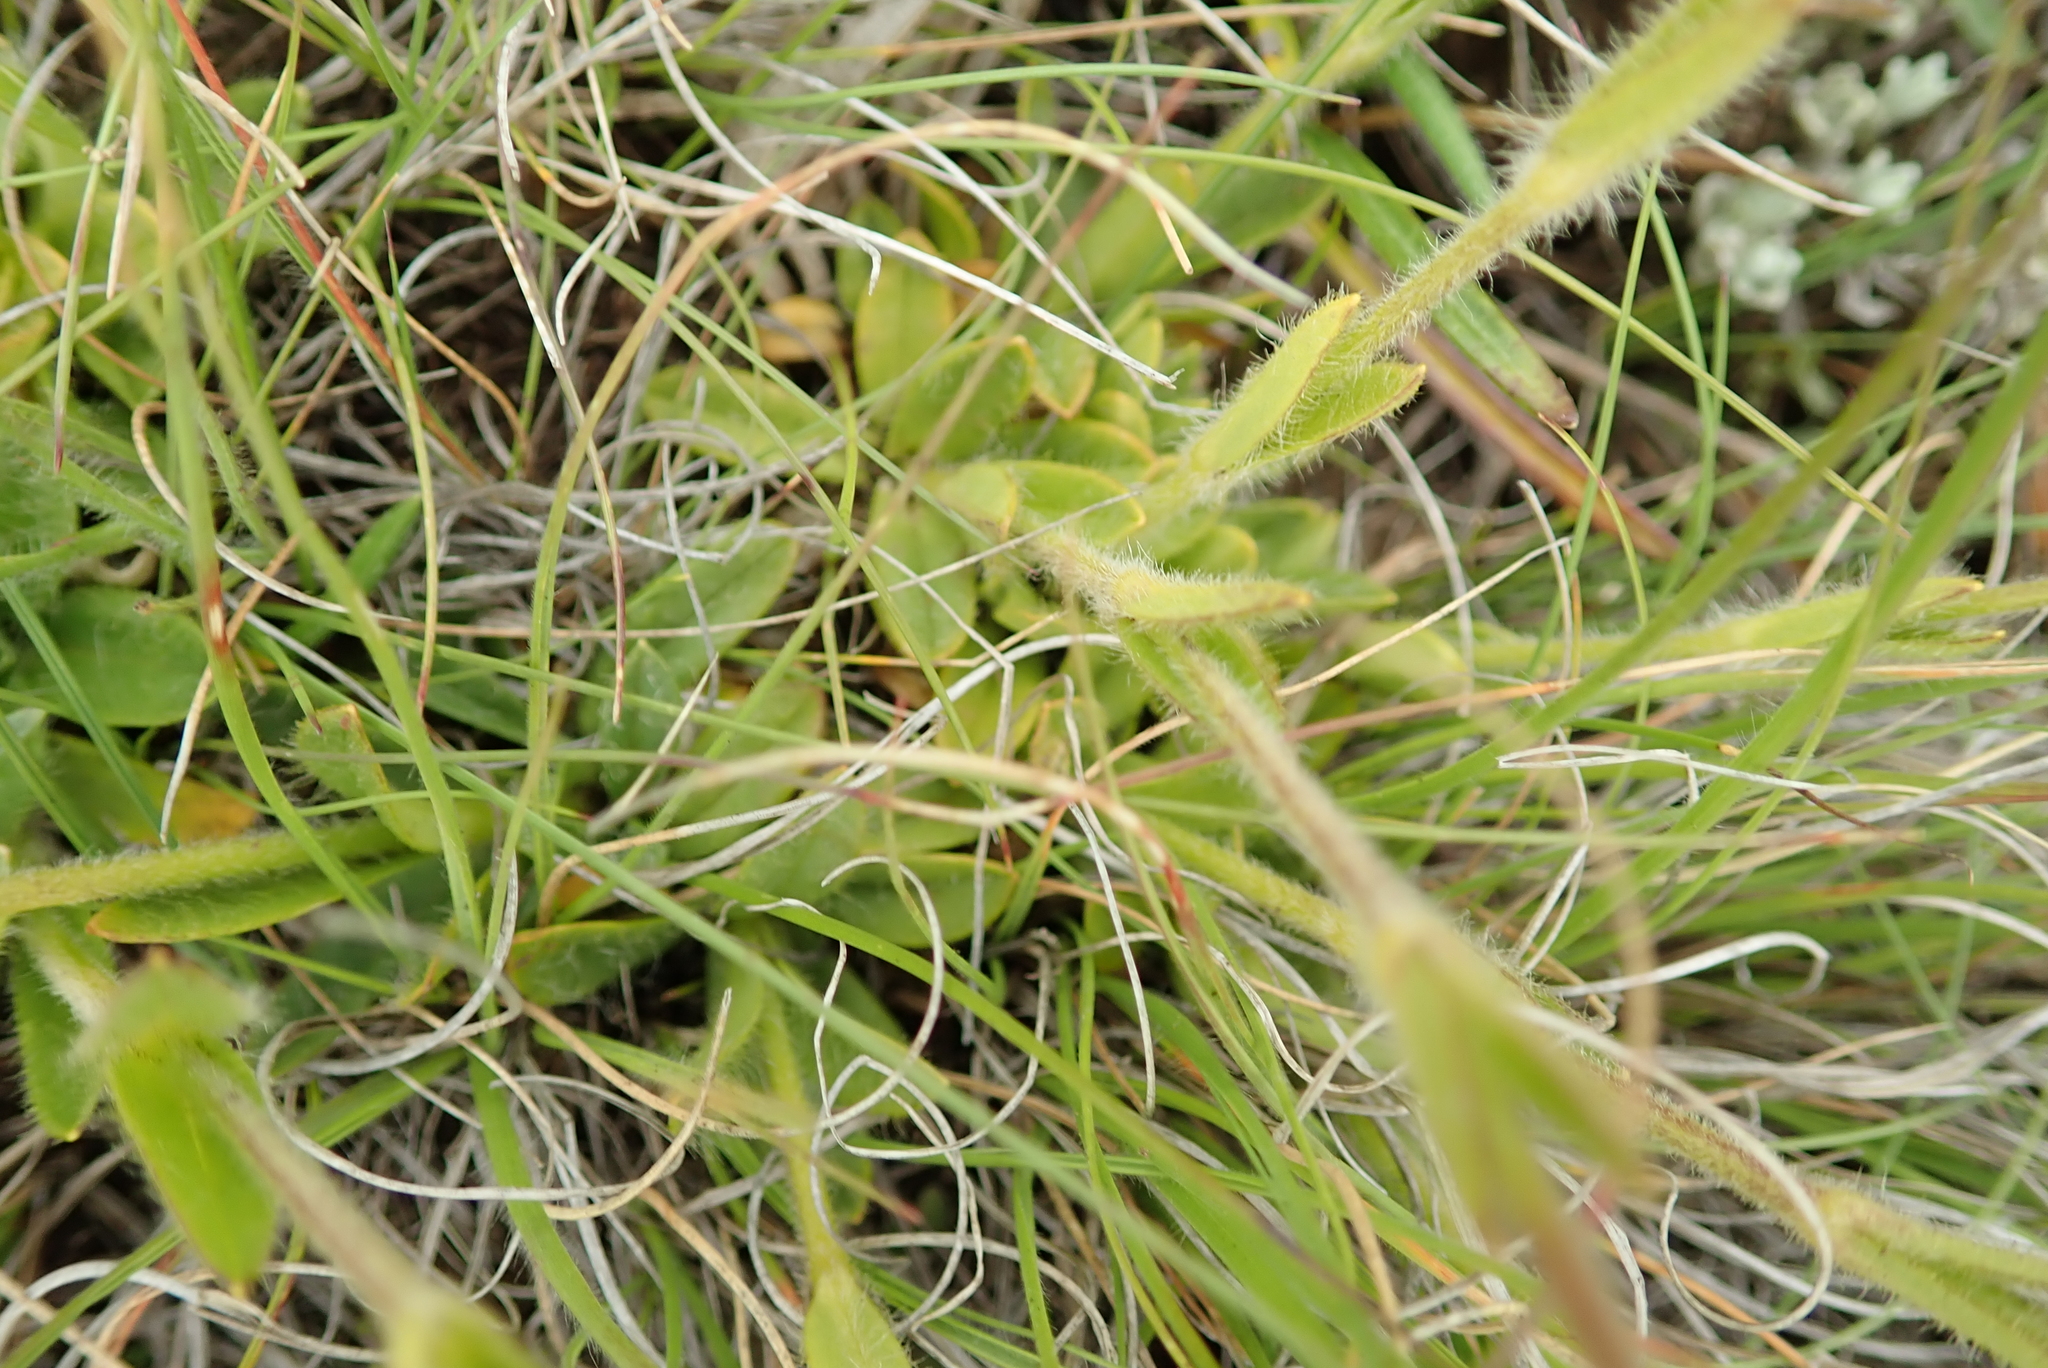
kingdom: Plantae
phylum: Tracheophyta
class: Magnoliopsida
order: Caryophyllales
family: Caryophyllaceae
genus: Cerastium
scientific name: Cerastium arabidis
